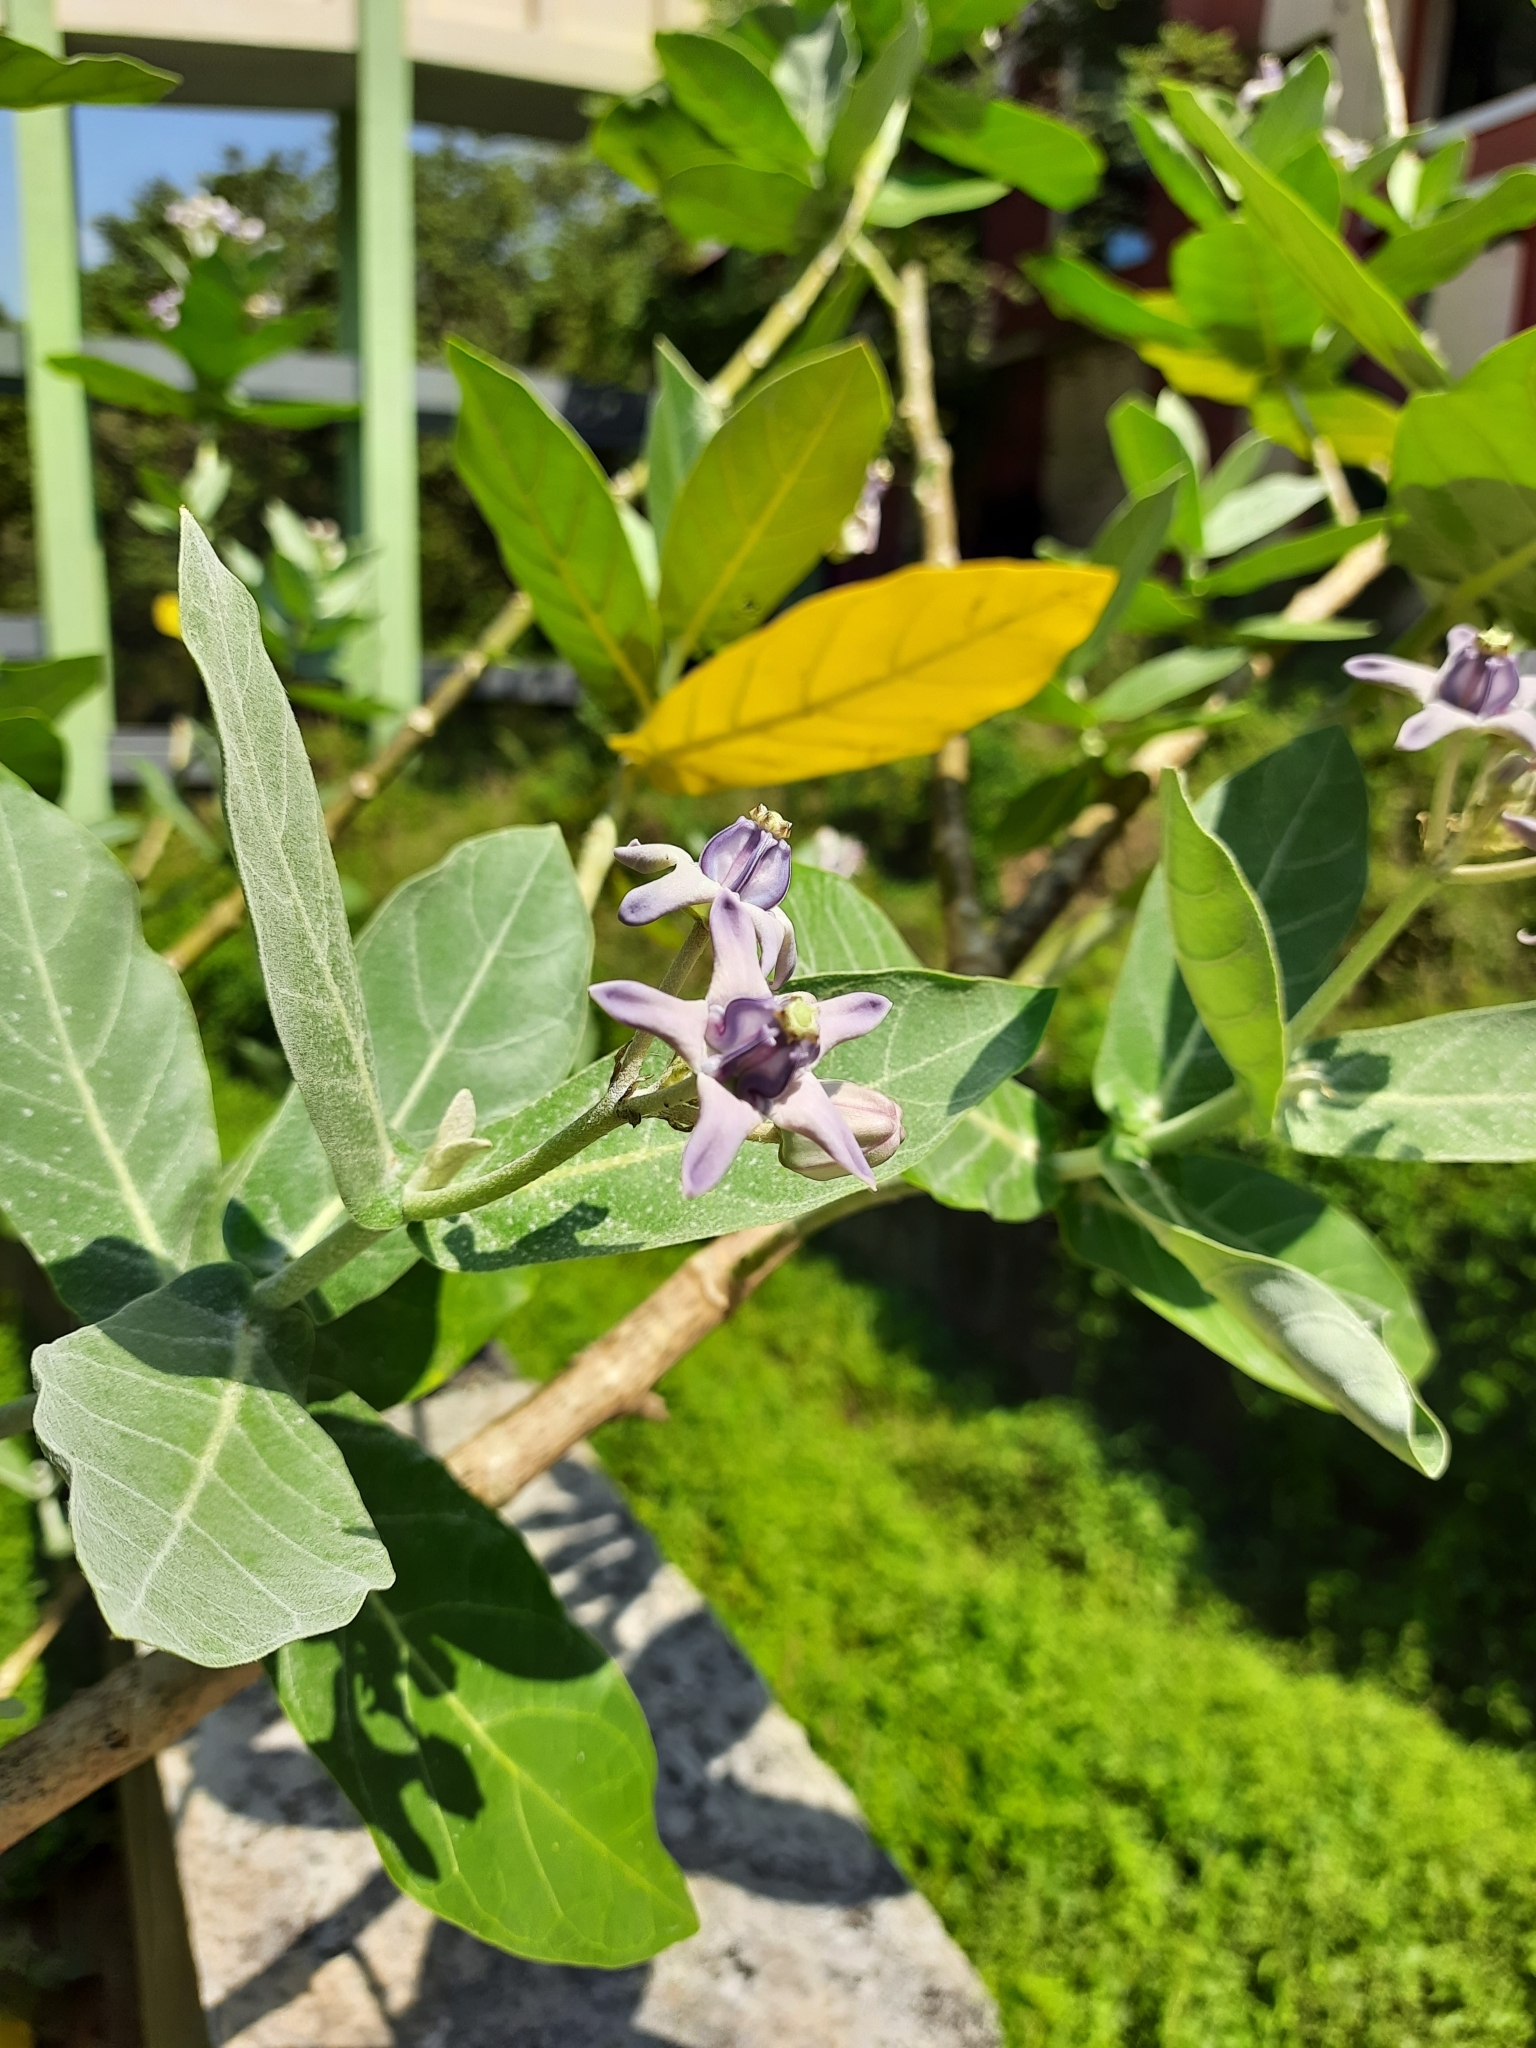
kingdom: Plantae
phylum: Tracheophyta
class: Magnoliopsida
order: Gentianales
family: Apocynaceae
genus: Calotropis
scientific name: Calotropis gigantea
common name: Crown flower
